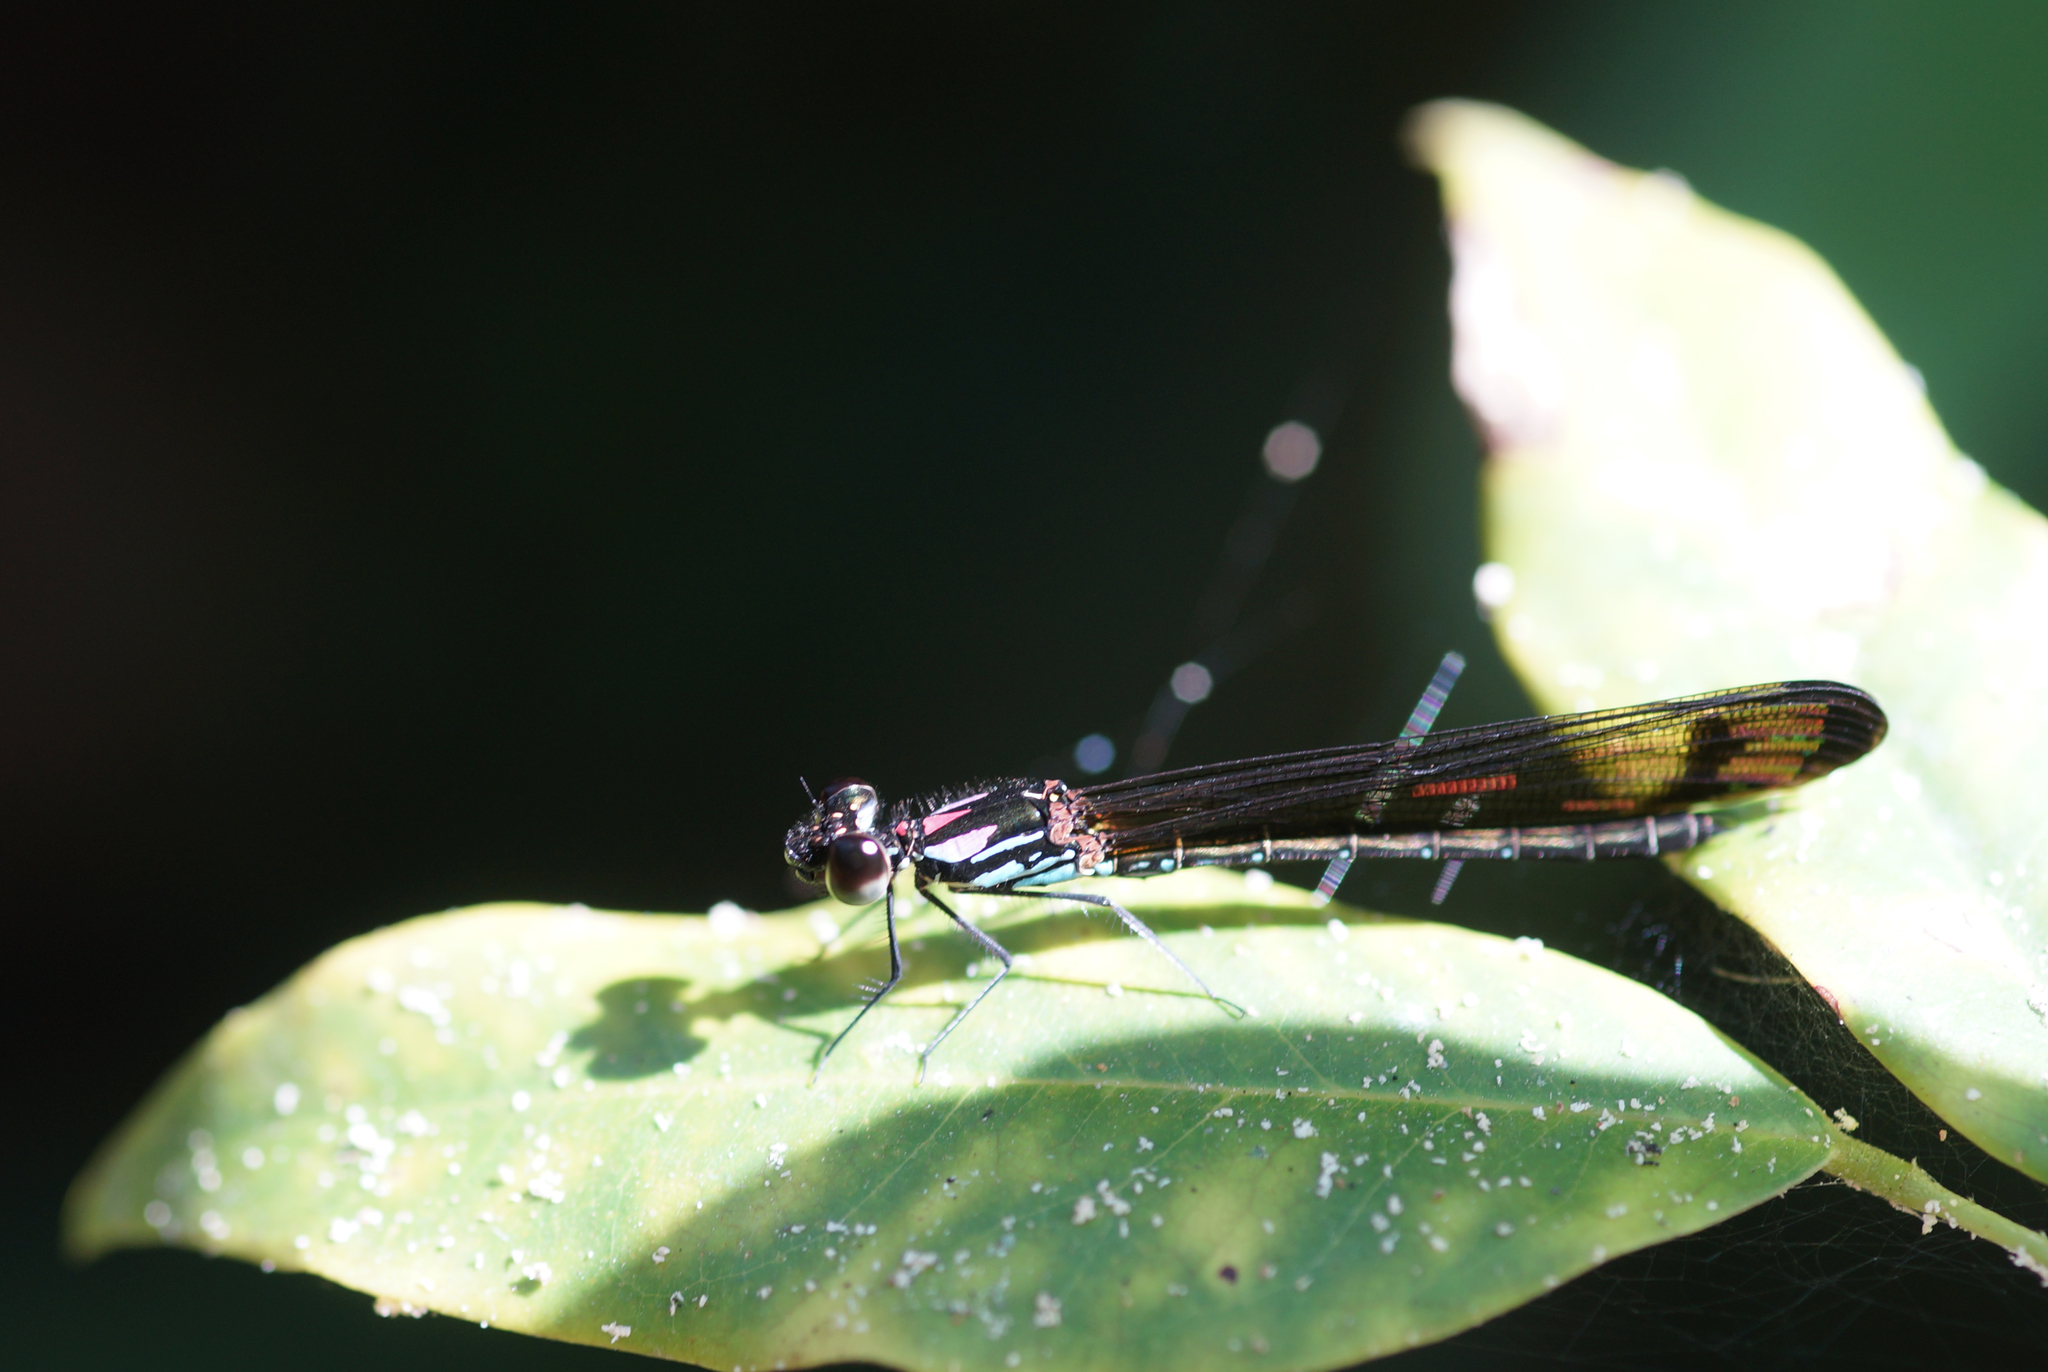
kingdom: Animalia
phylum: Arthropoda
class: Insecta
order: Odonata
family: Chlorocyphidae
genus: Heliocypha
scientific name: Heliocypha biforata
